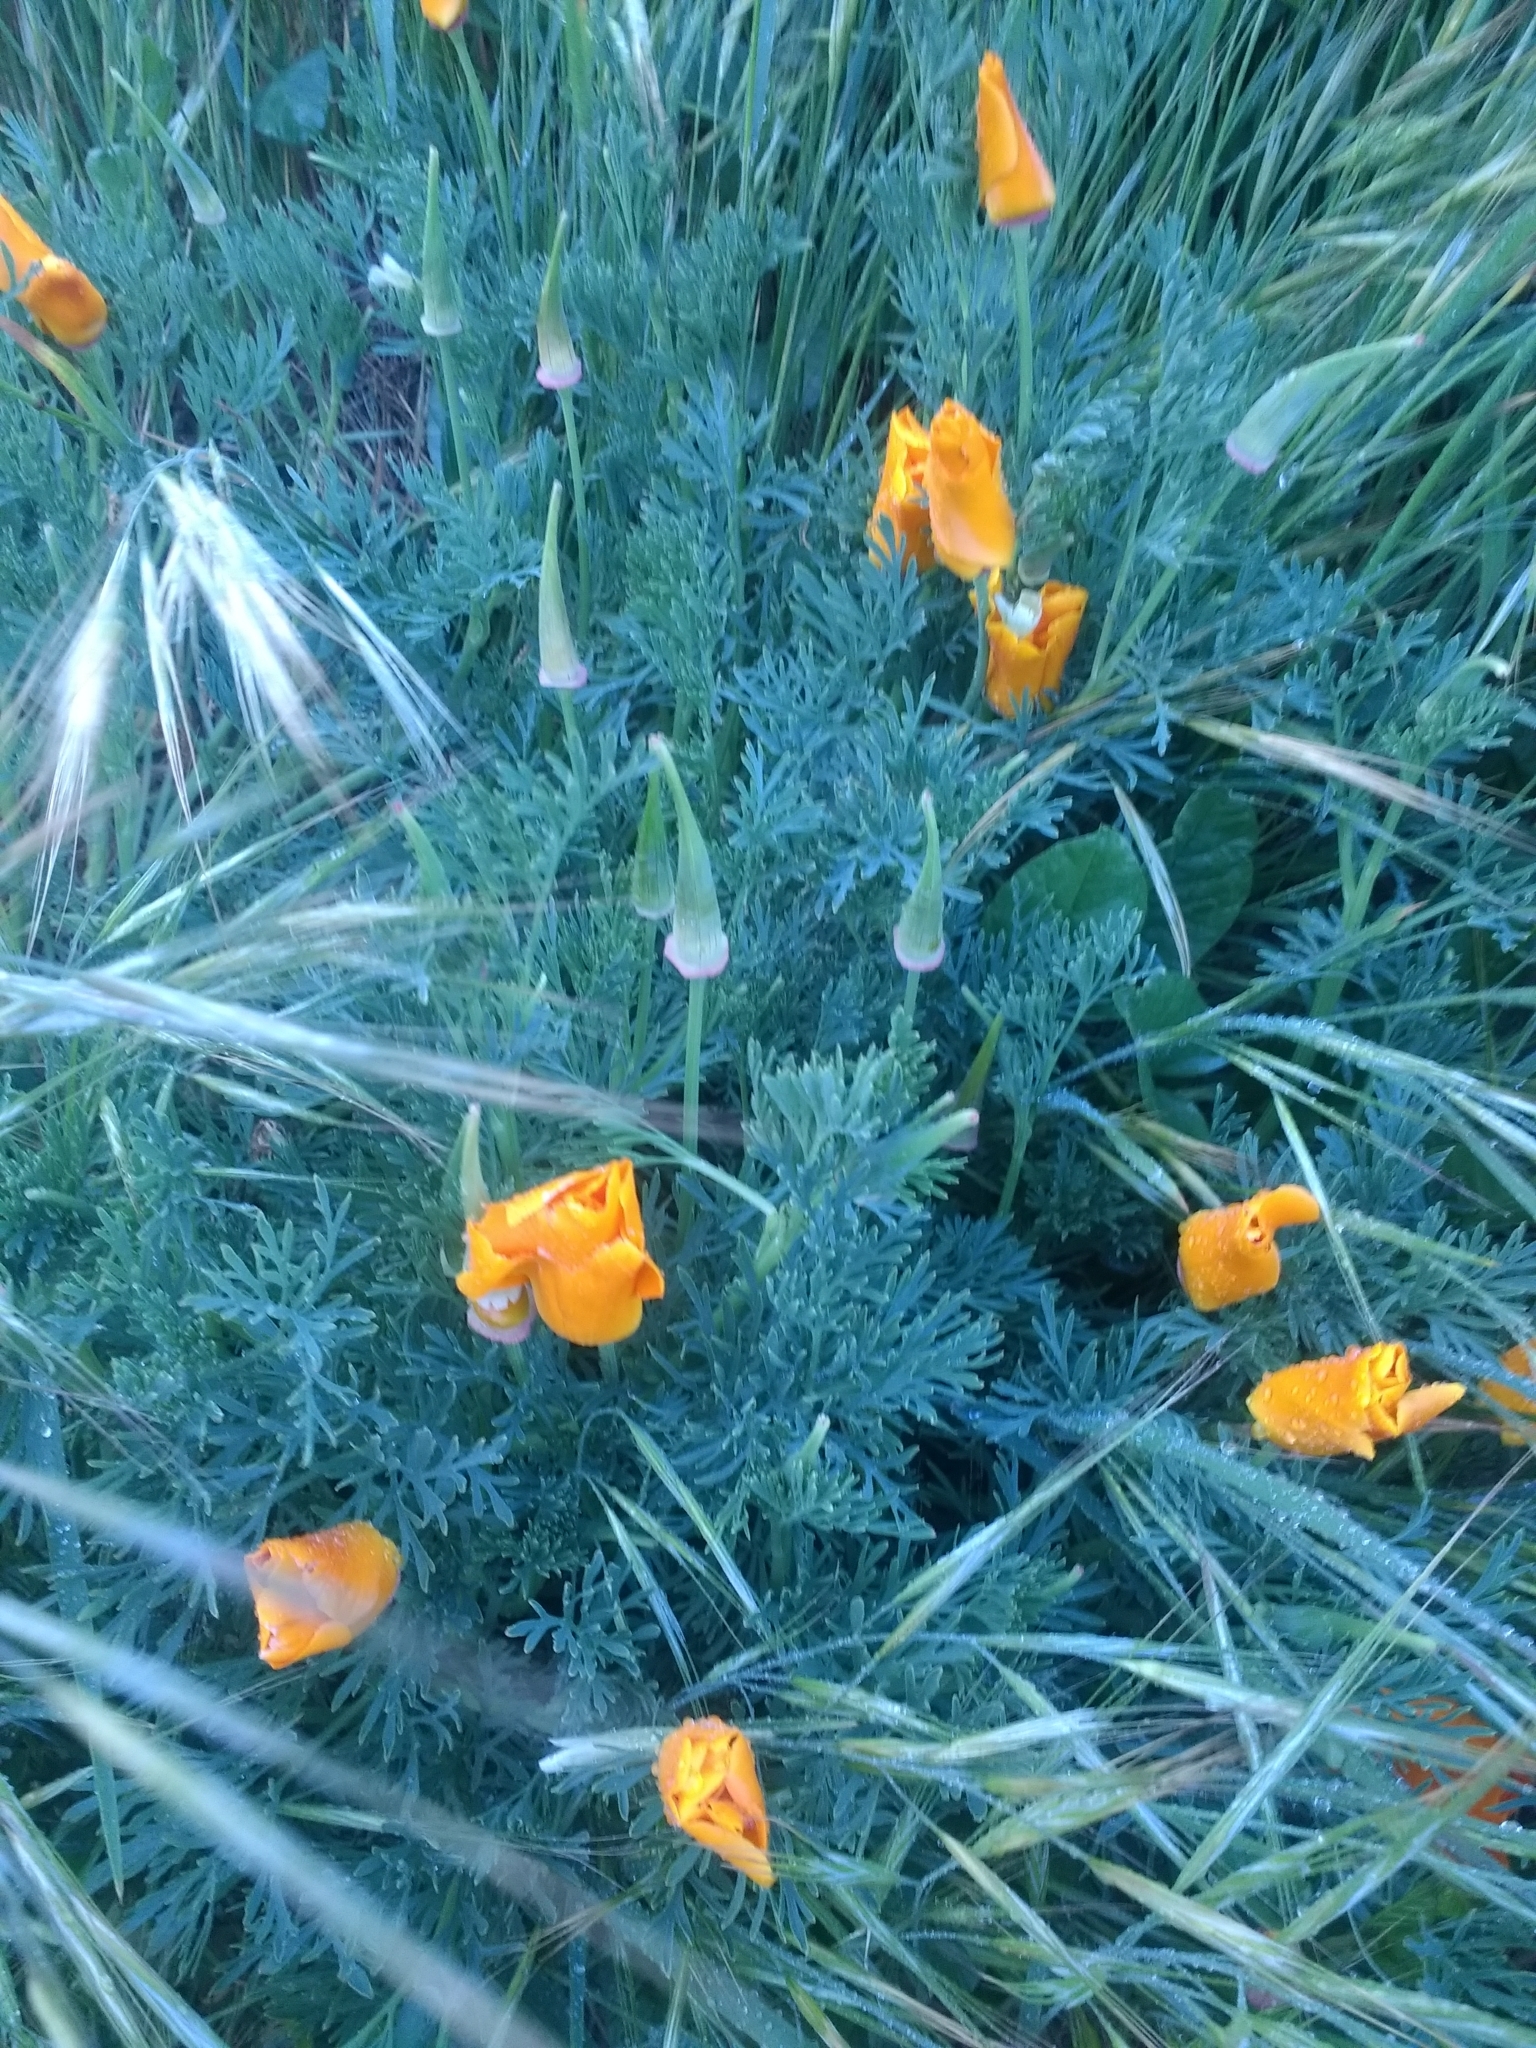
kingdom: Plantae
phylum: Tracheophyta
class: Magnoliopsida
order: Ranunculales
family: Papaveraceae
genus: Eschscholzia
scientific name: Eschscholzia californica
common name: California poppy
